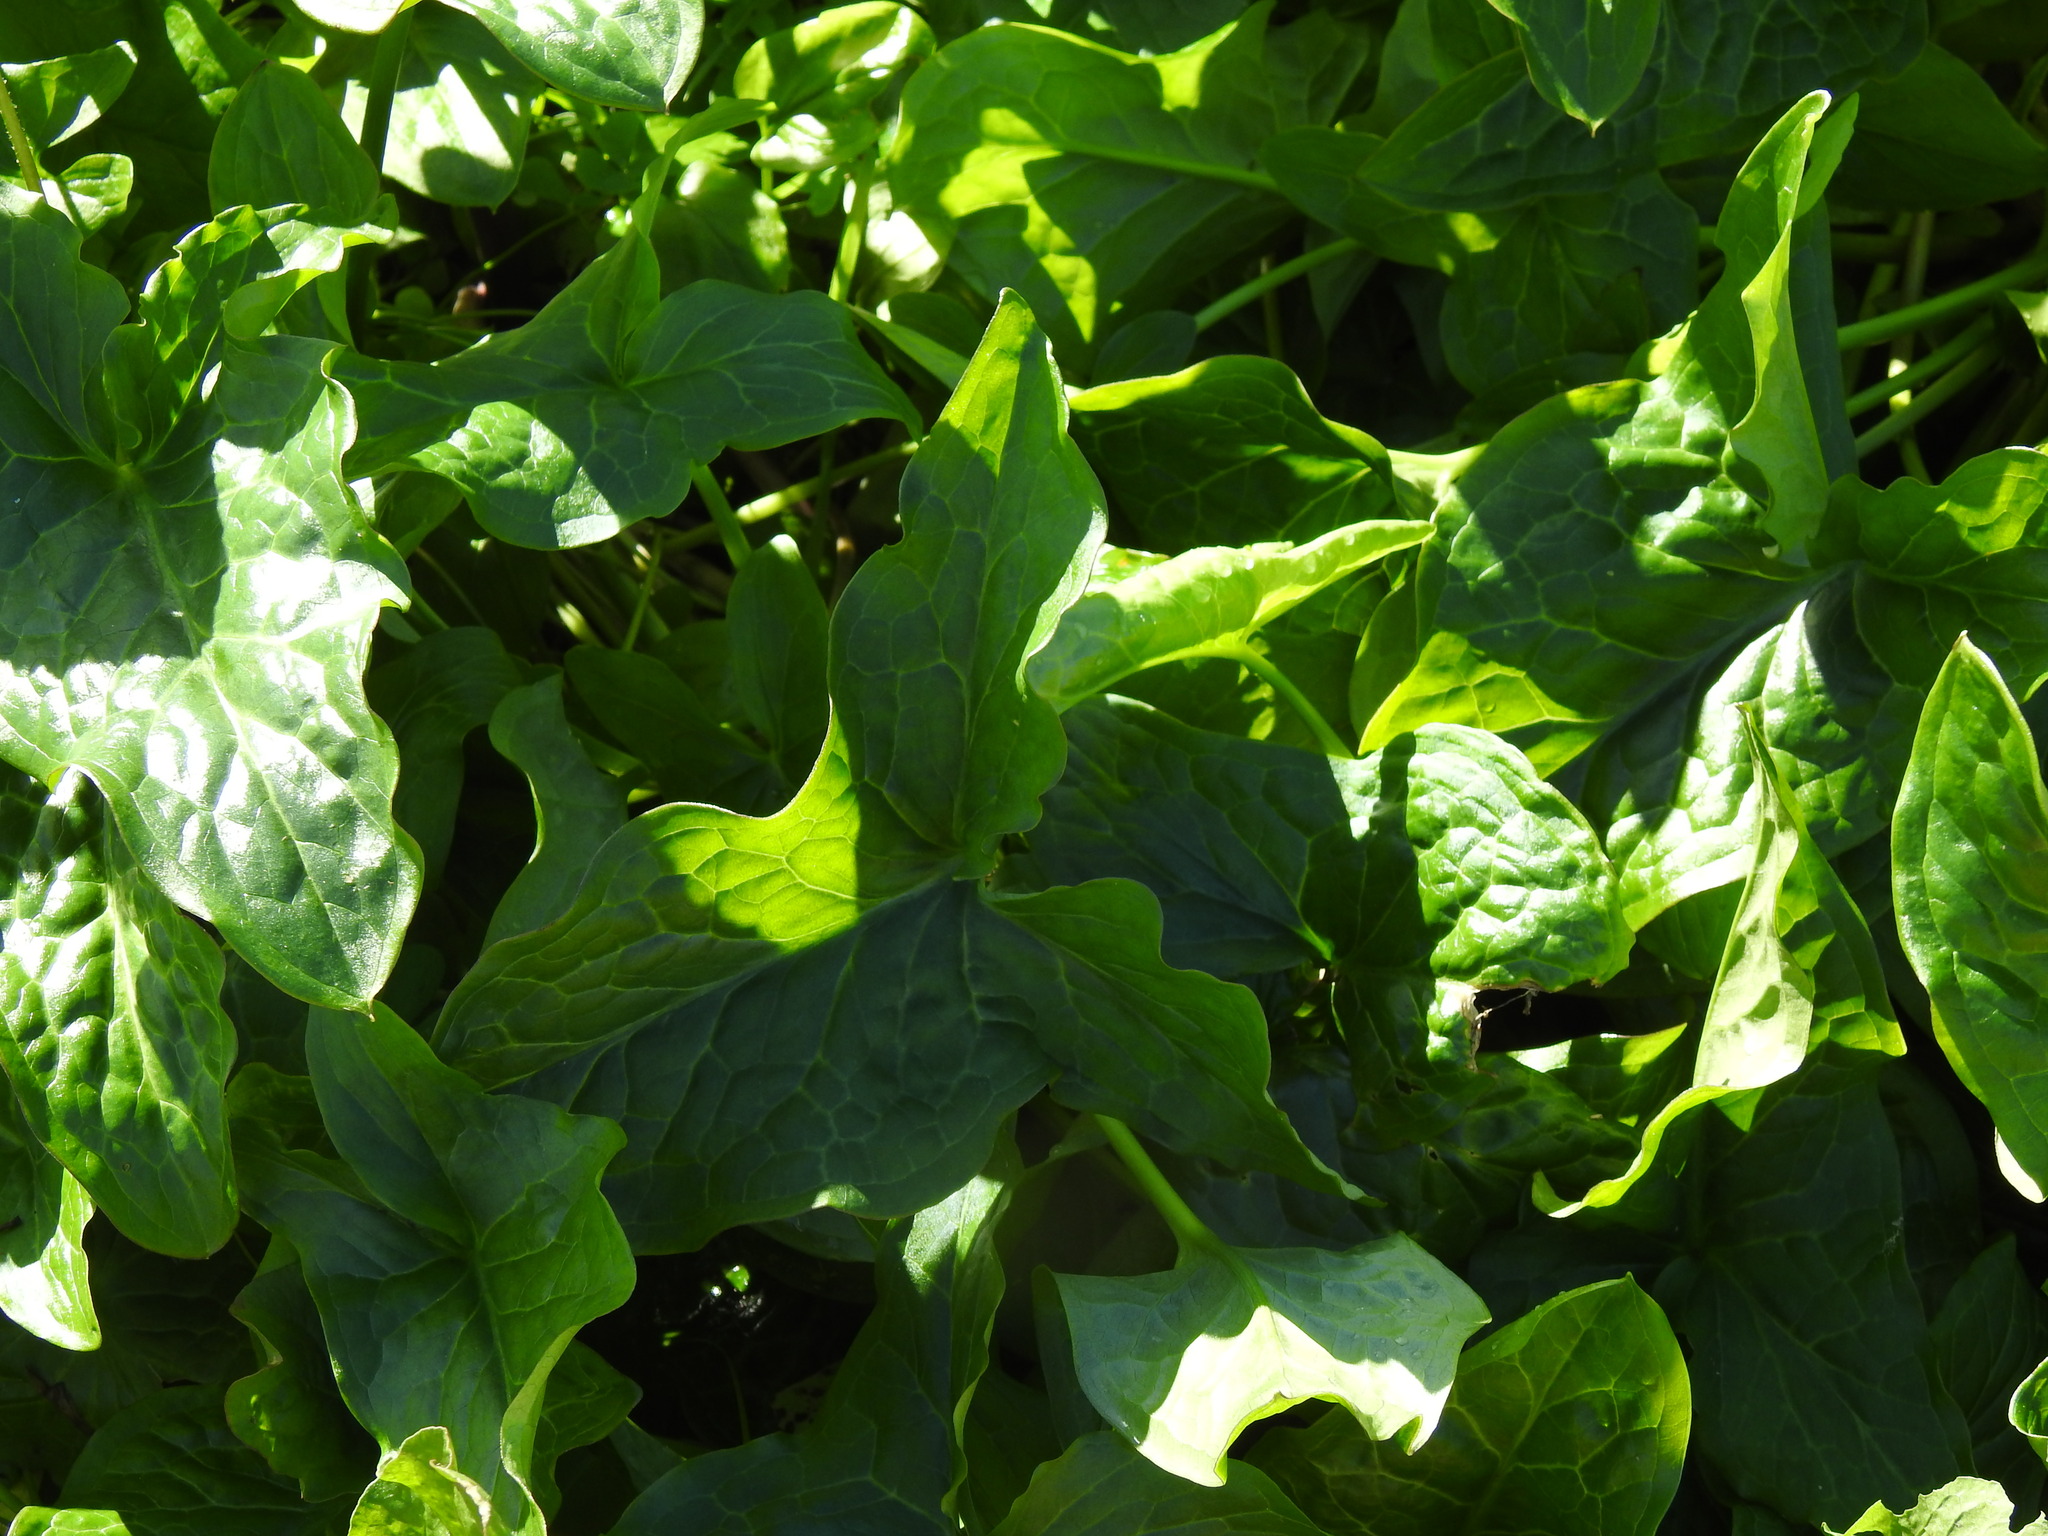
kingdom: Plantae
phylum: Tracheophyta
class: Liliopsida
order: Alismatales
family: Araceae
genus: Arum
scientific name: Arum italicum
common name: Italian lords-and-ladies
